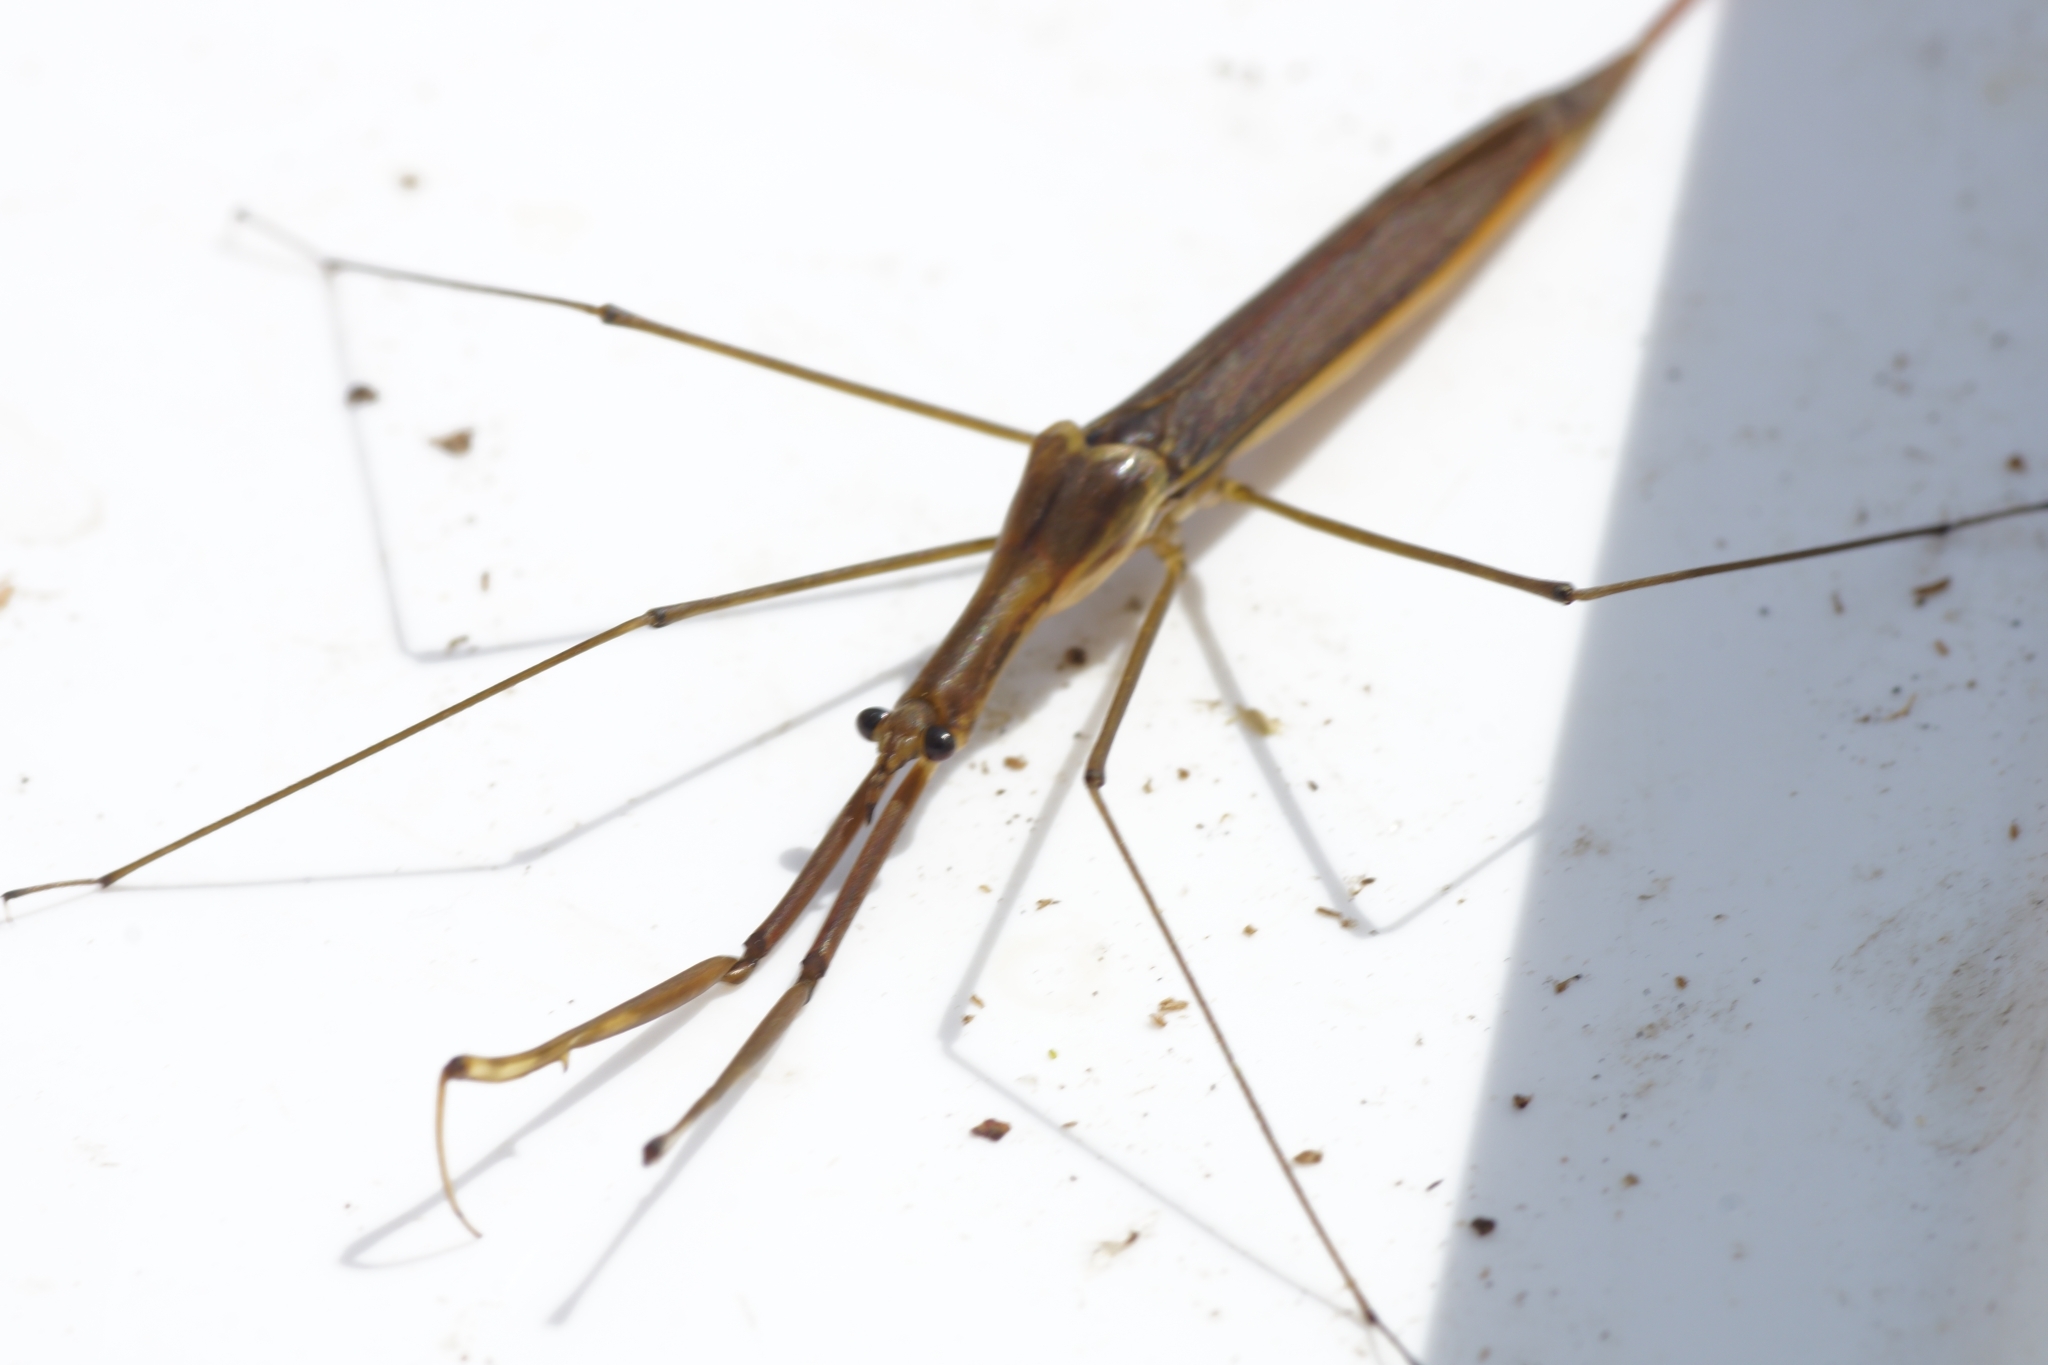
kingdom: Animalia
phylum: Arthropoda
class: Insecta
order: Hemiptera
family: Nepidae
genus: Ranatra
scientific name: Ranatra linearis
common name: Water stick insect
